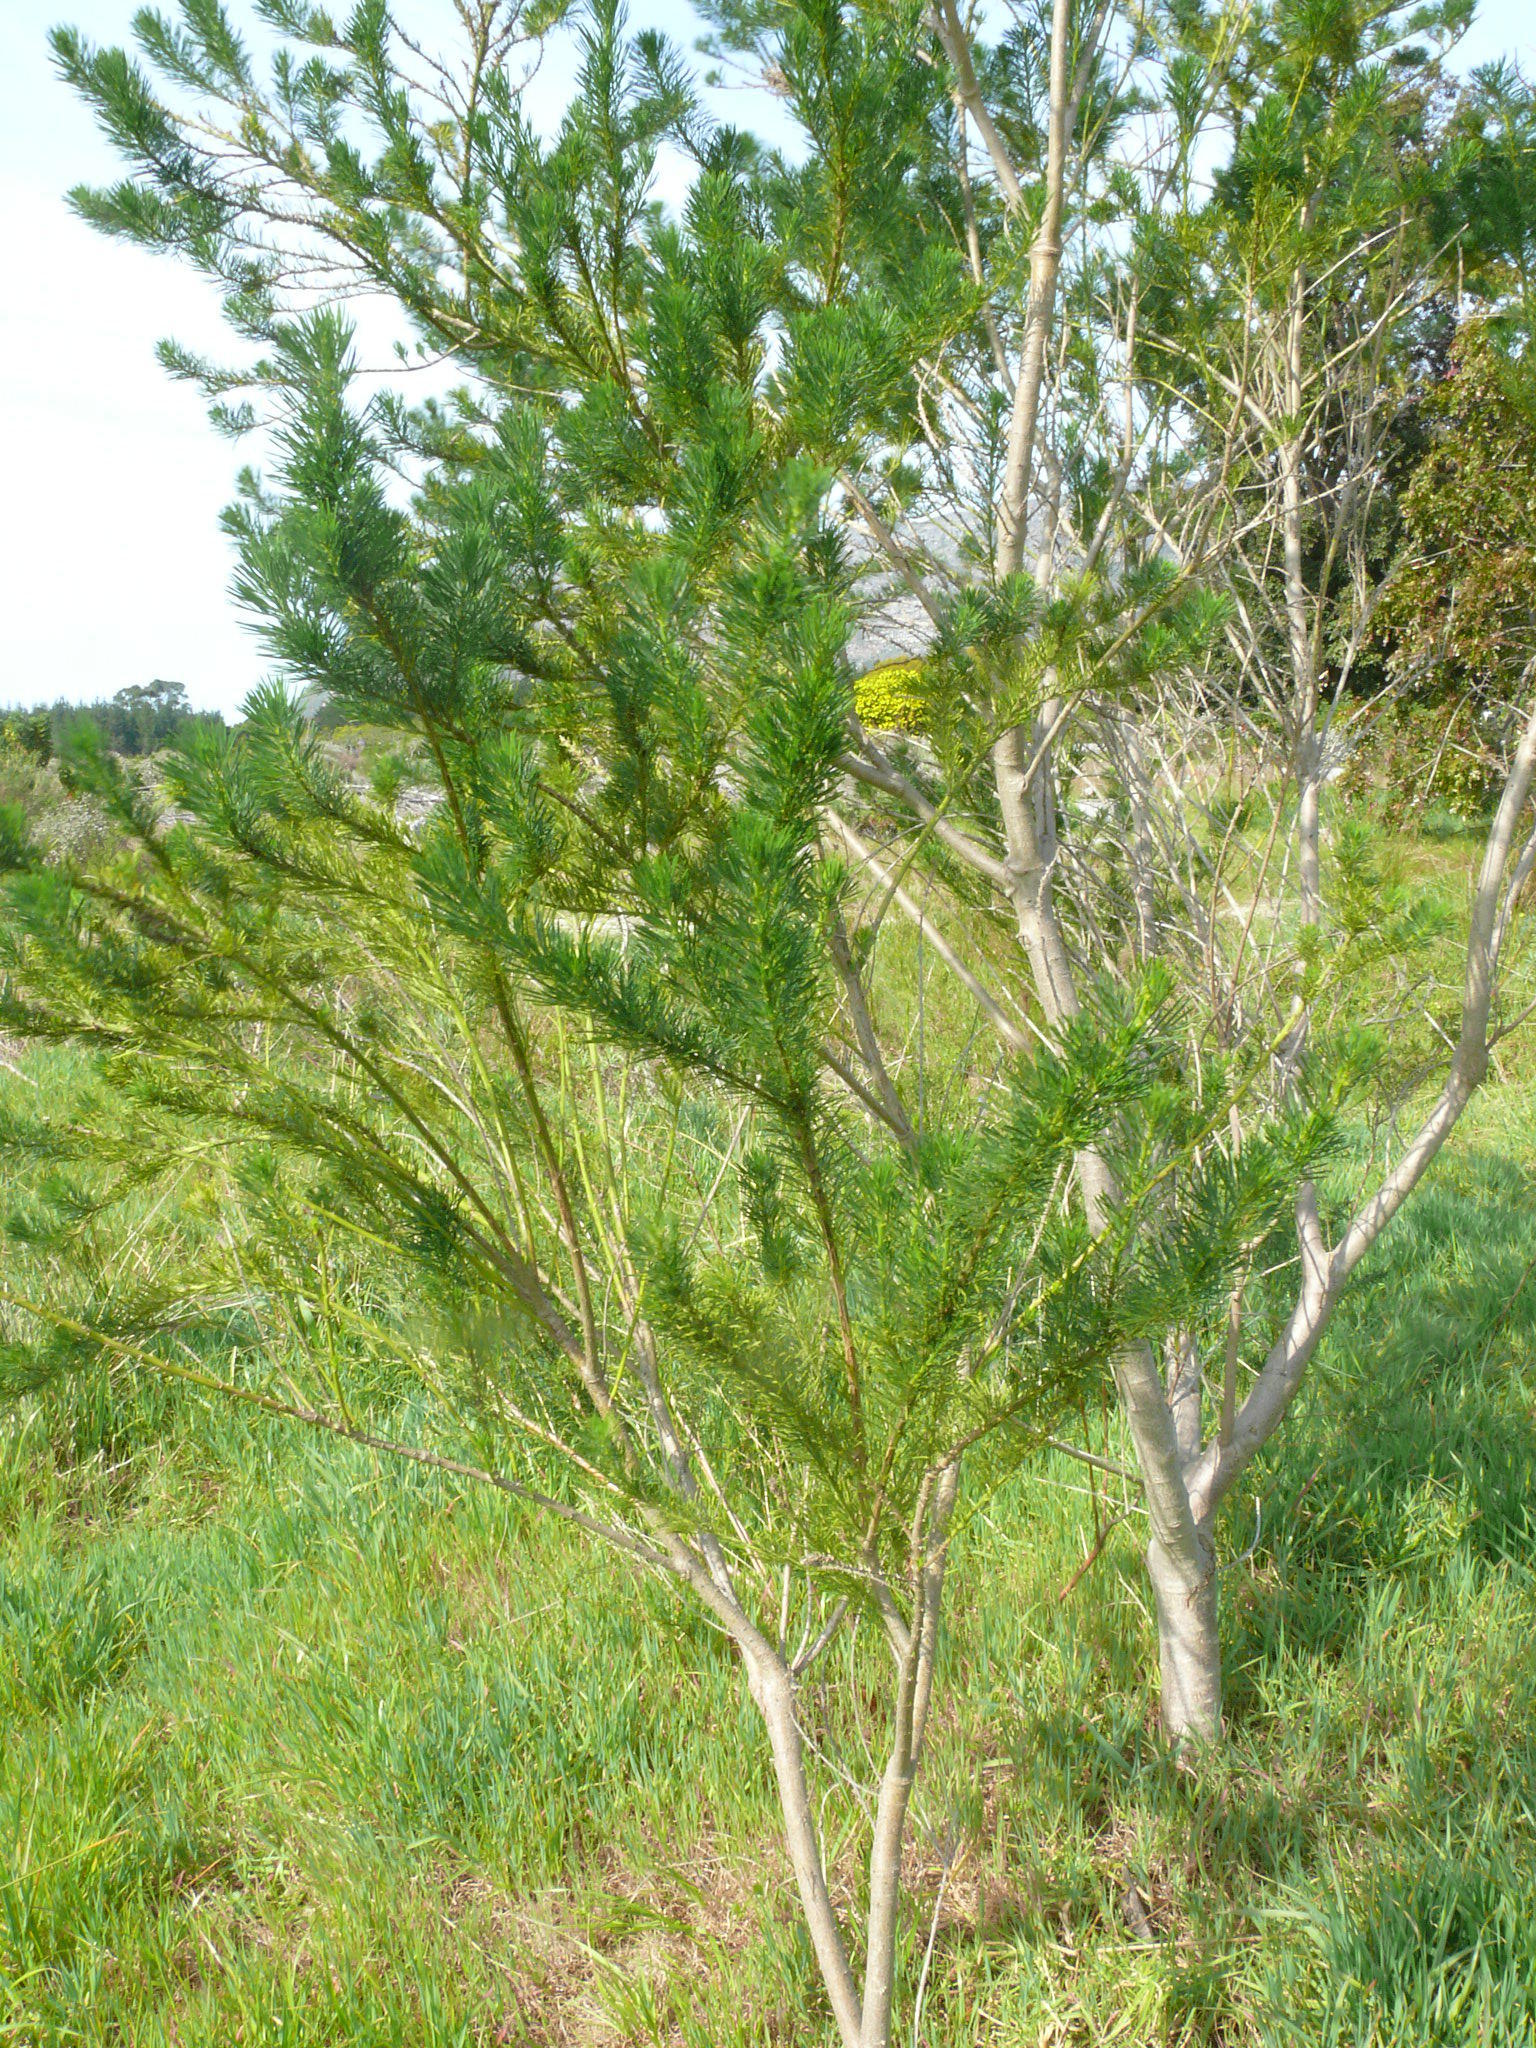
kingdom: Plantae
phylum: Tracheophyta
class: Magnoliopsida
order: Fabales
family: Fabaceae
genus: Psoralea
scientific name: Psoralea pinnata
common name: African scurfpea
